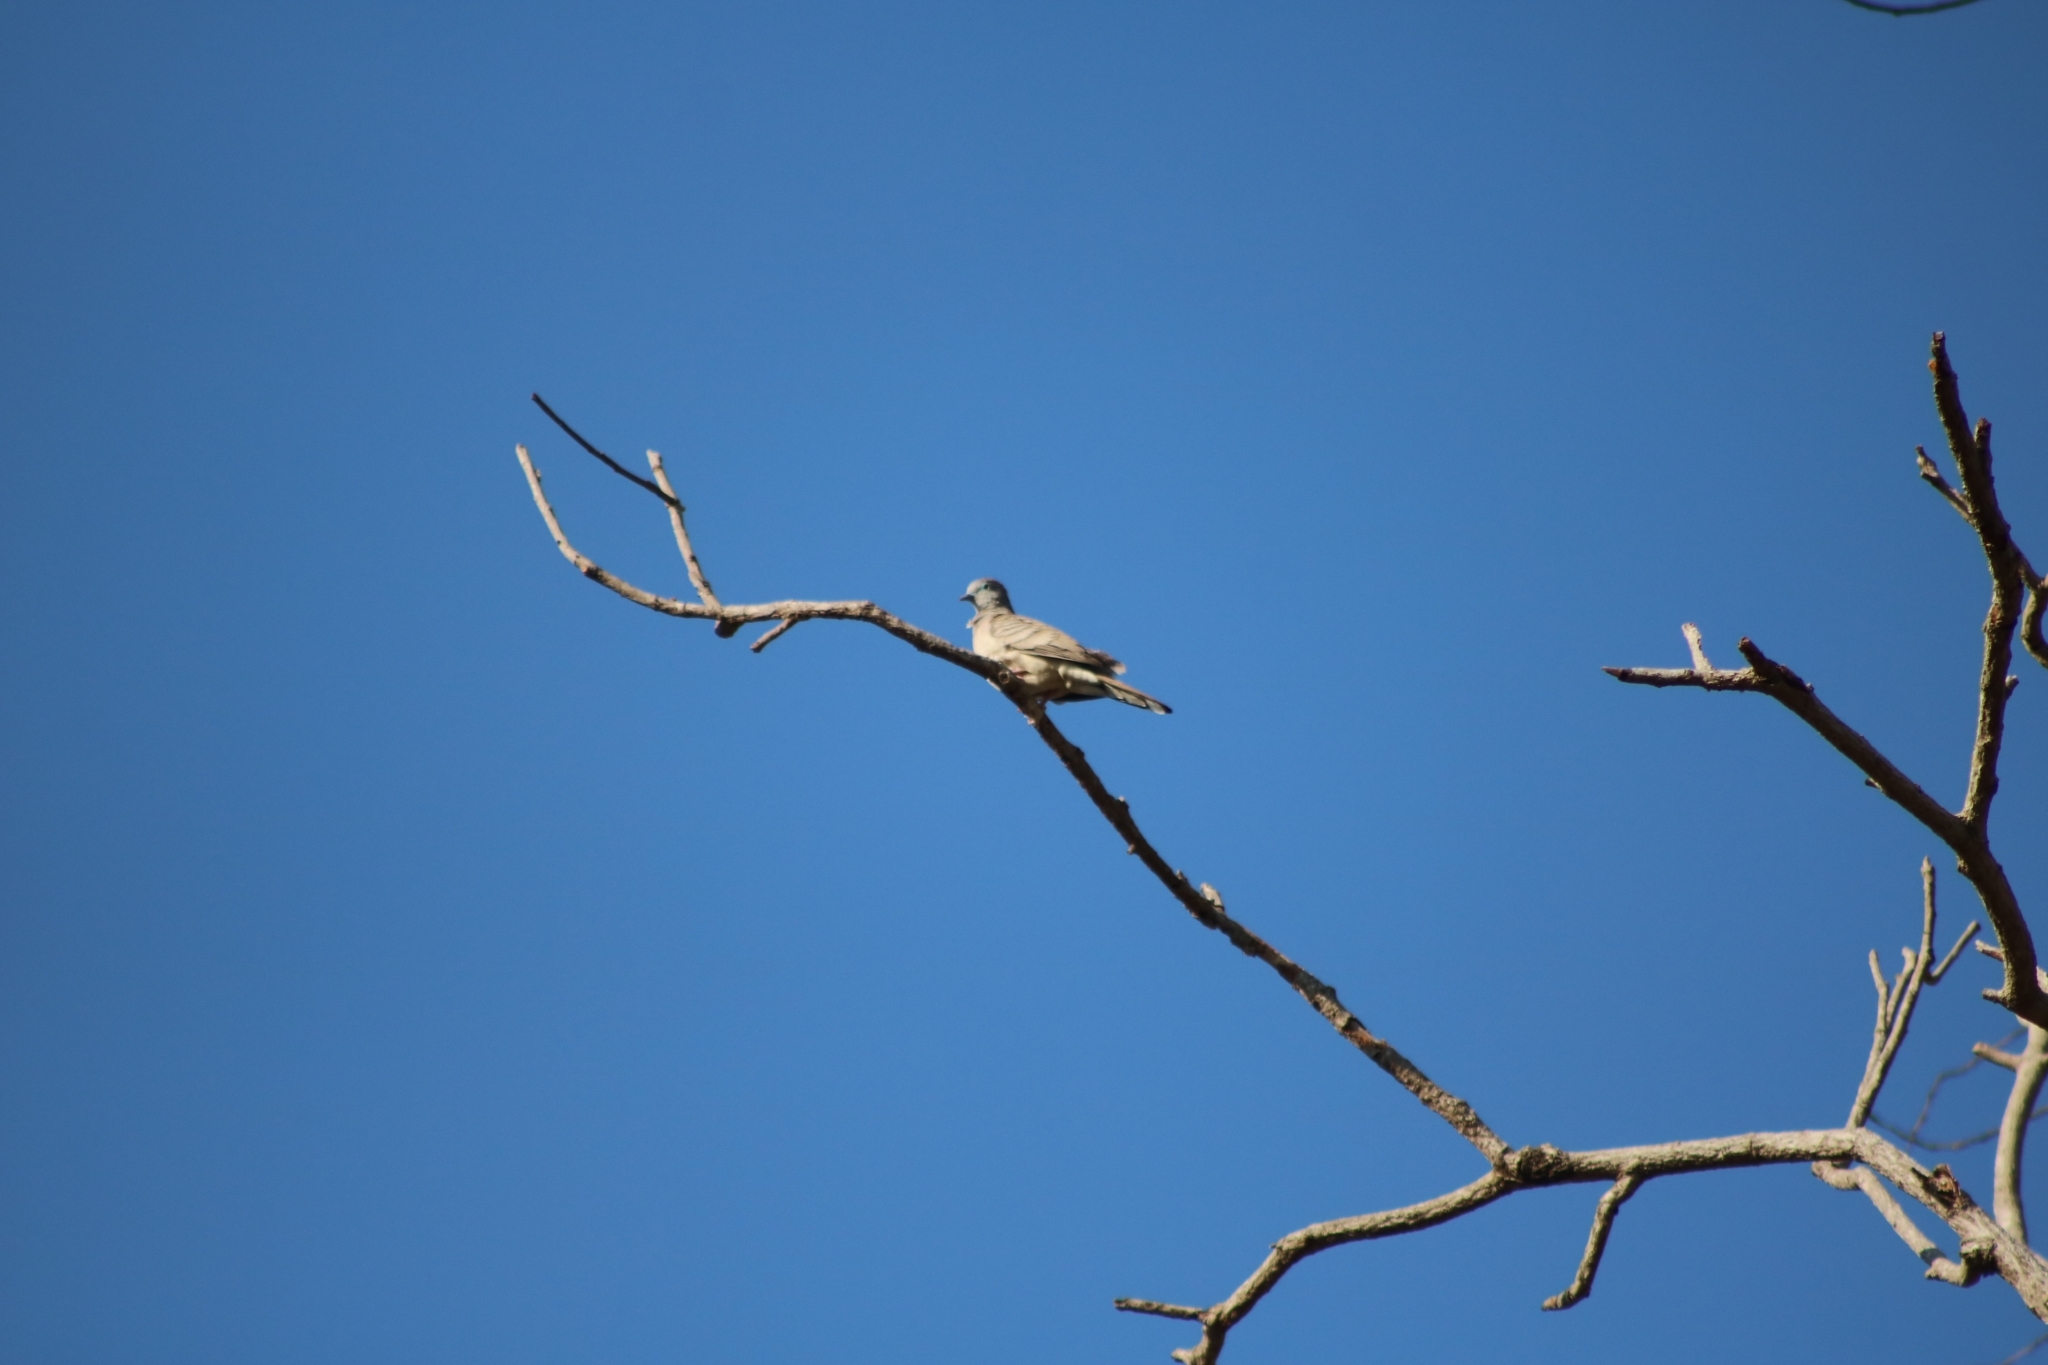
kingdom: Animalia
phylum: Chordata
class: Aves
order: Columbiformes
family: Columbidae
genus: Geopelia
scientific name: Geopelia placida
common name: Peaceful dove
